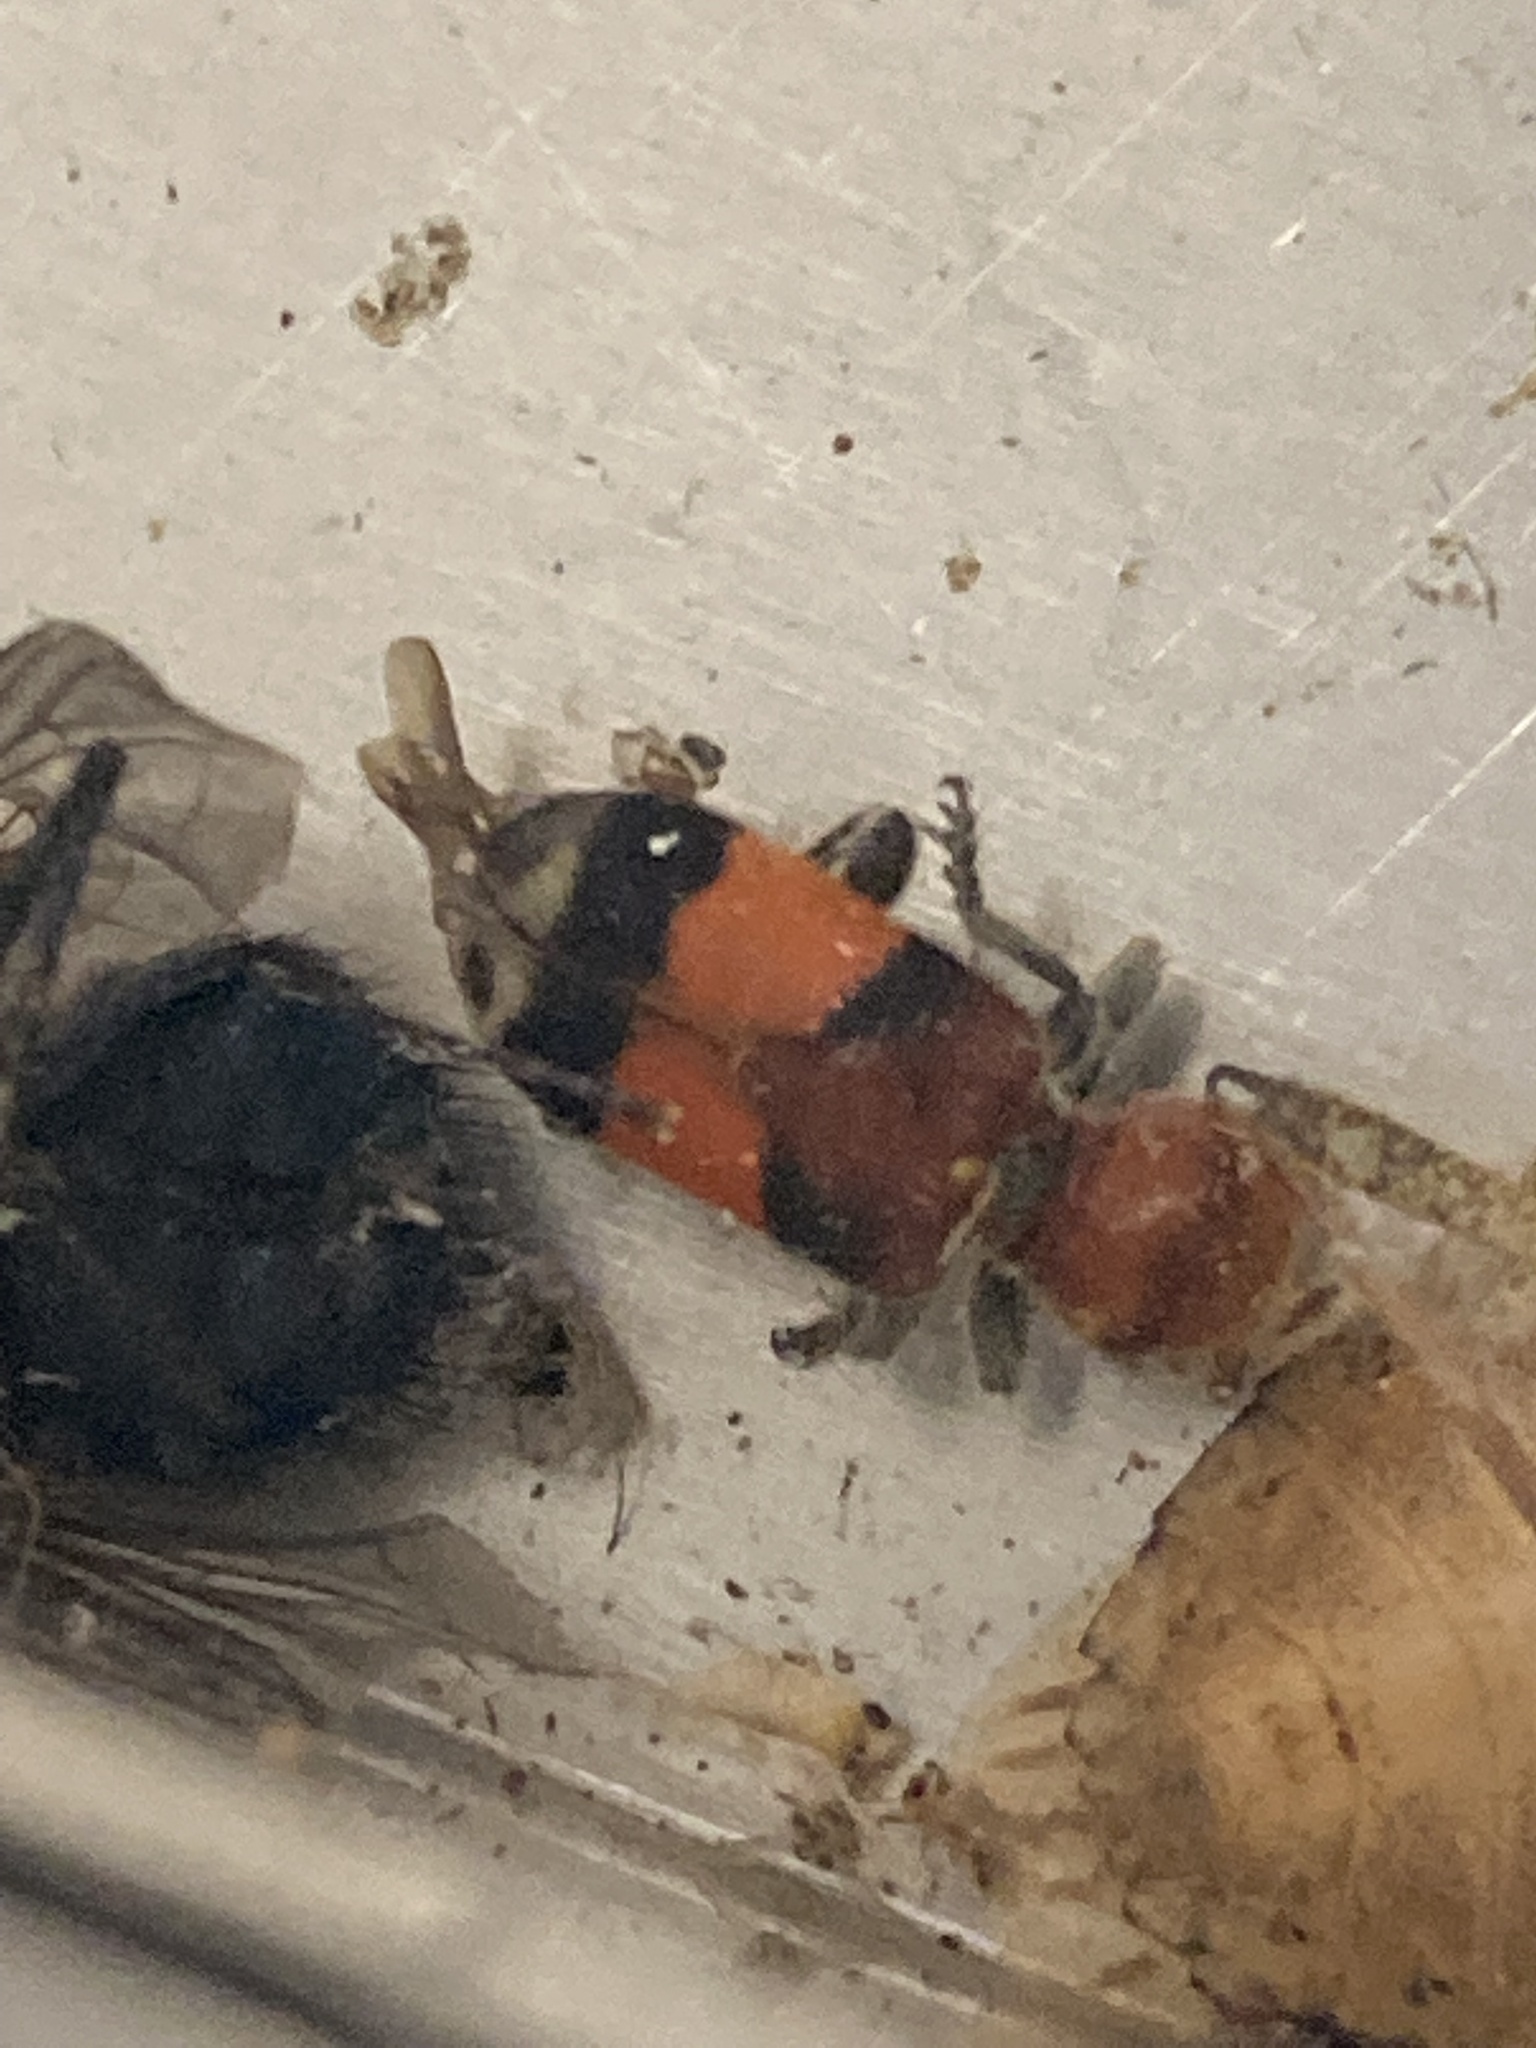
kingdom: Animalia
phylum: Arthropoda
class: Insecta
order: Coleoptera
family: Cleridae
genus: Enoclerus
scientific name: Enoclerus ichneumoneus
